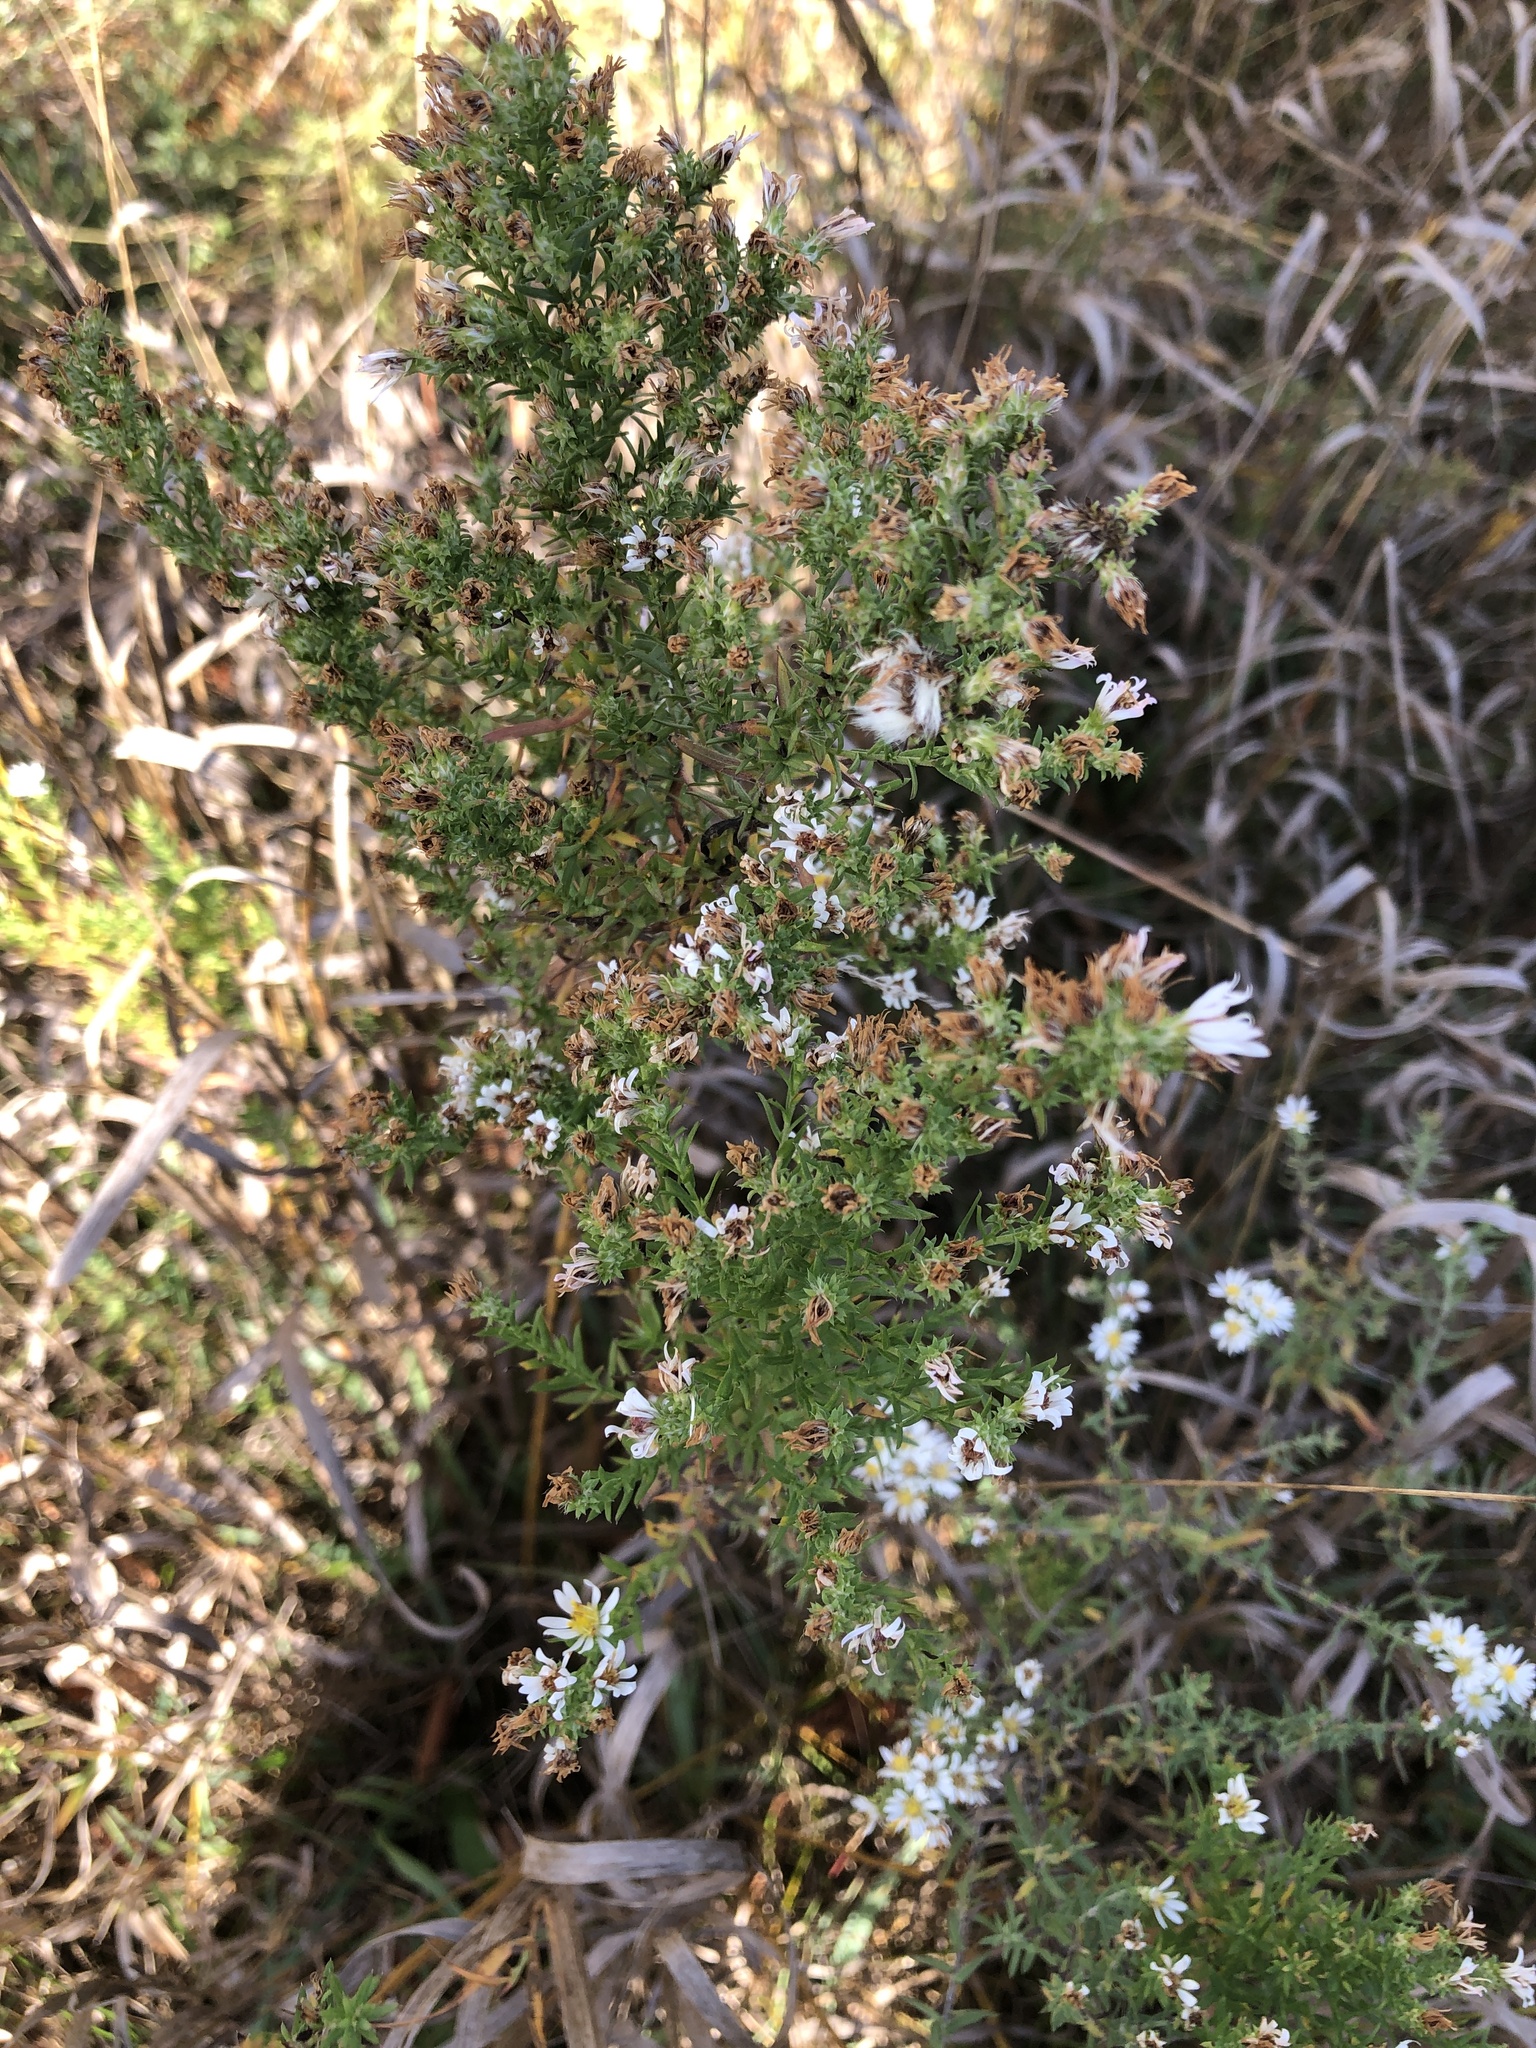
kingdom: Plantae
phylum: Tracheophyta
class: Magnoliopsida
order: Asterales
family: Asteraceae
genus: Symphyotrichum
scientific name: Symphyotrichum ericoides
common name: Heath aster
